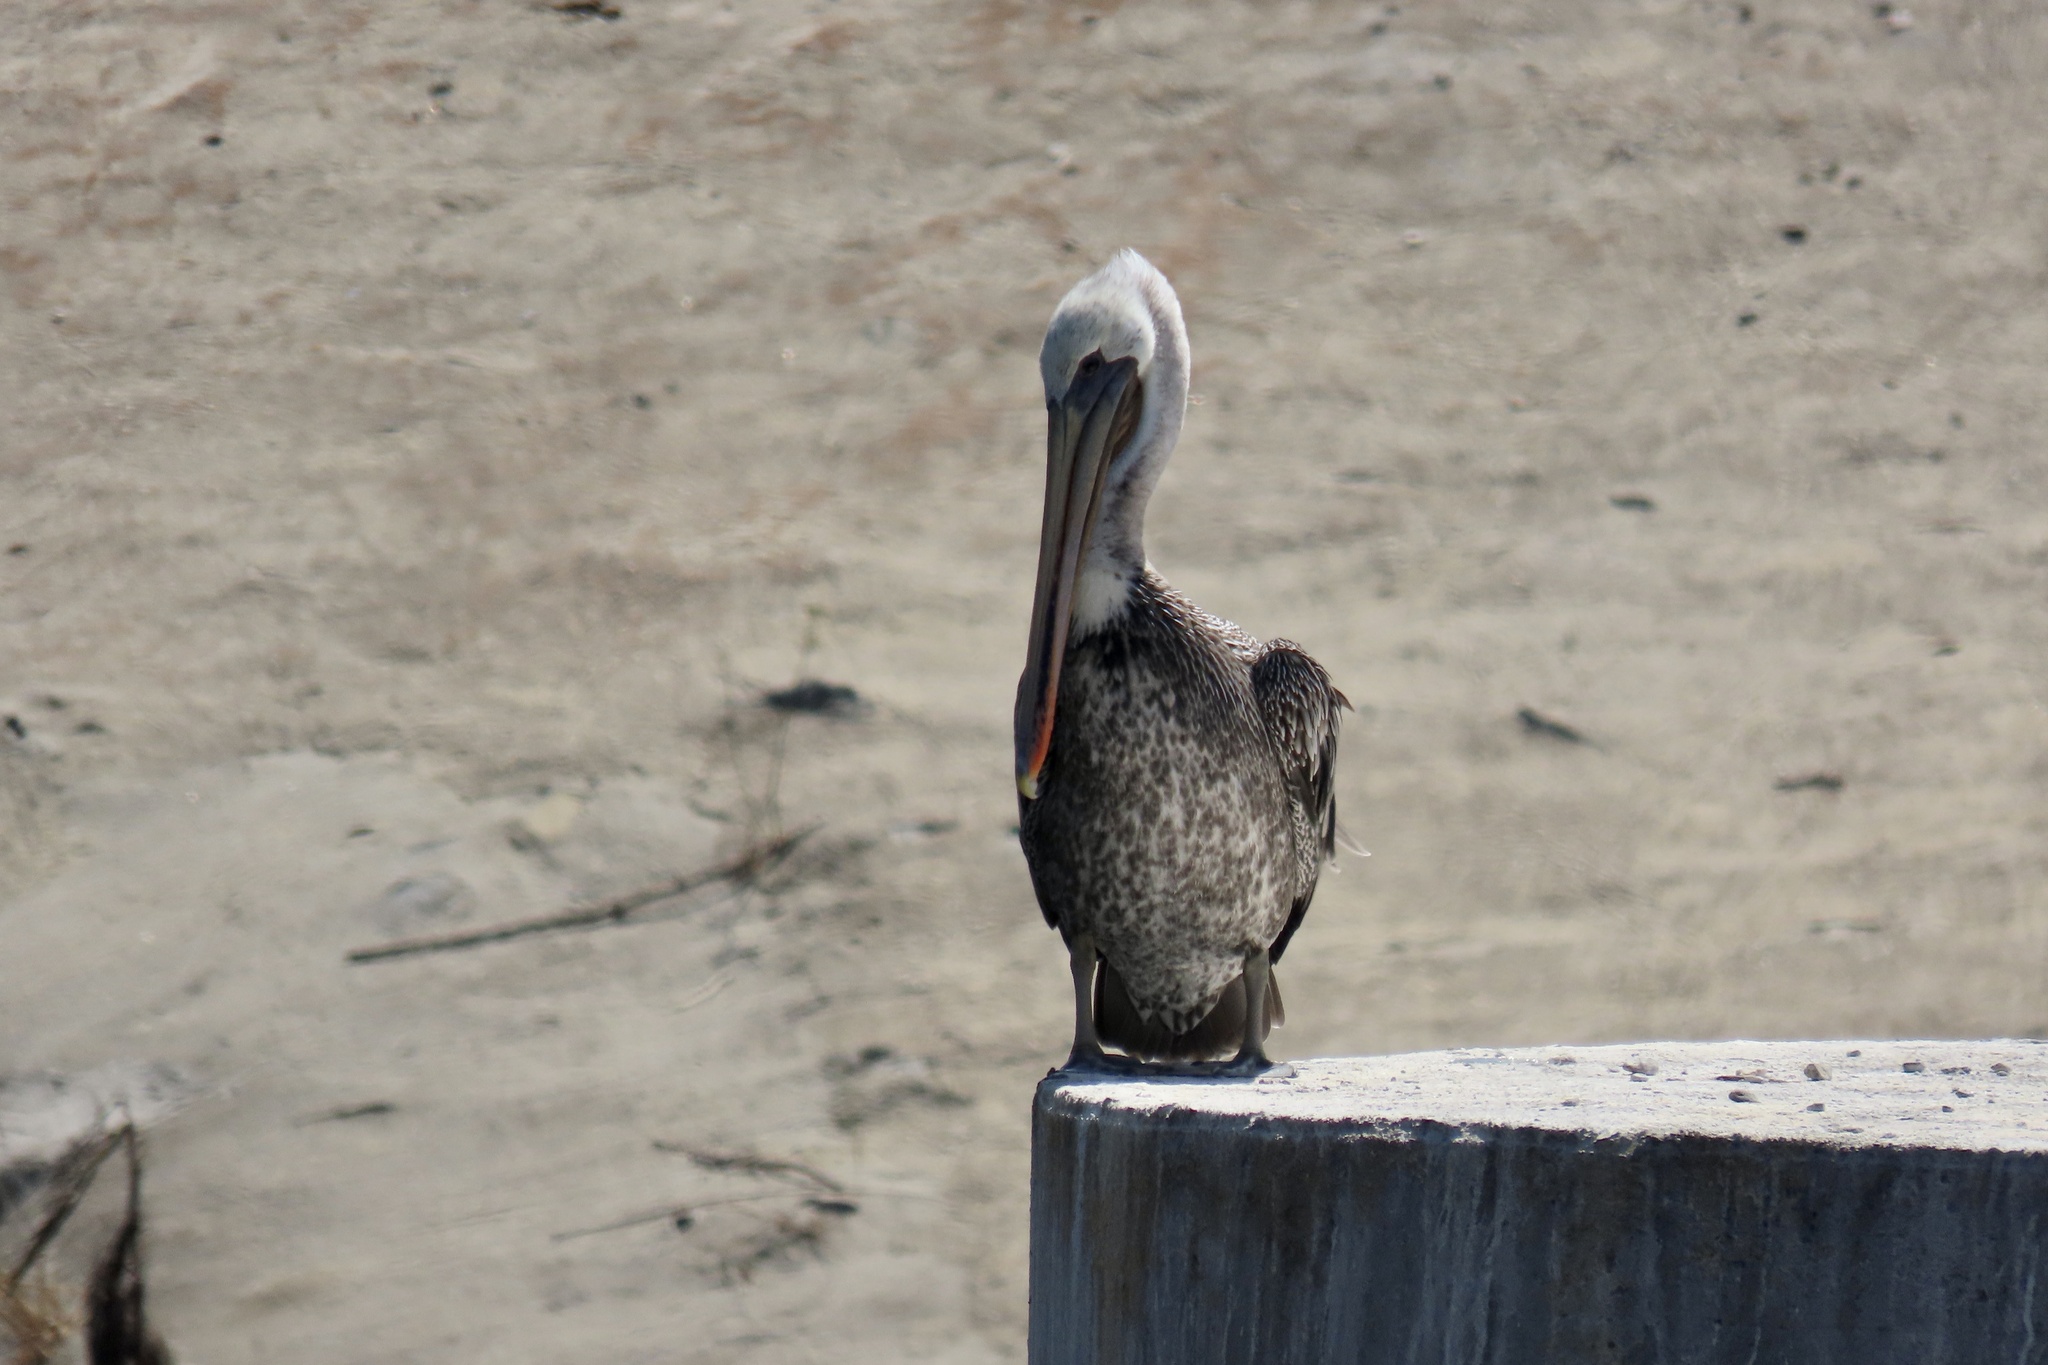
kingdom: Animalia
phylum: Chordata
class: Aves
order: Pelecaniformes
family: Pelecanidae
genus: Pelecanus
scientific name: Pelecanus occidentalis
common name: Brown pelican
